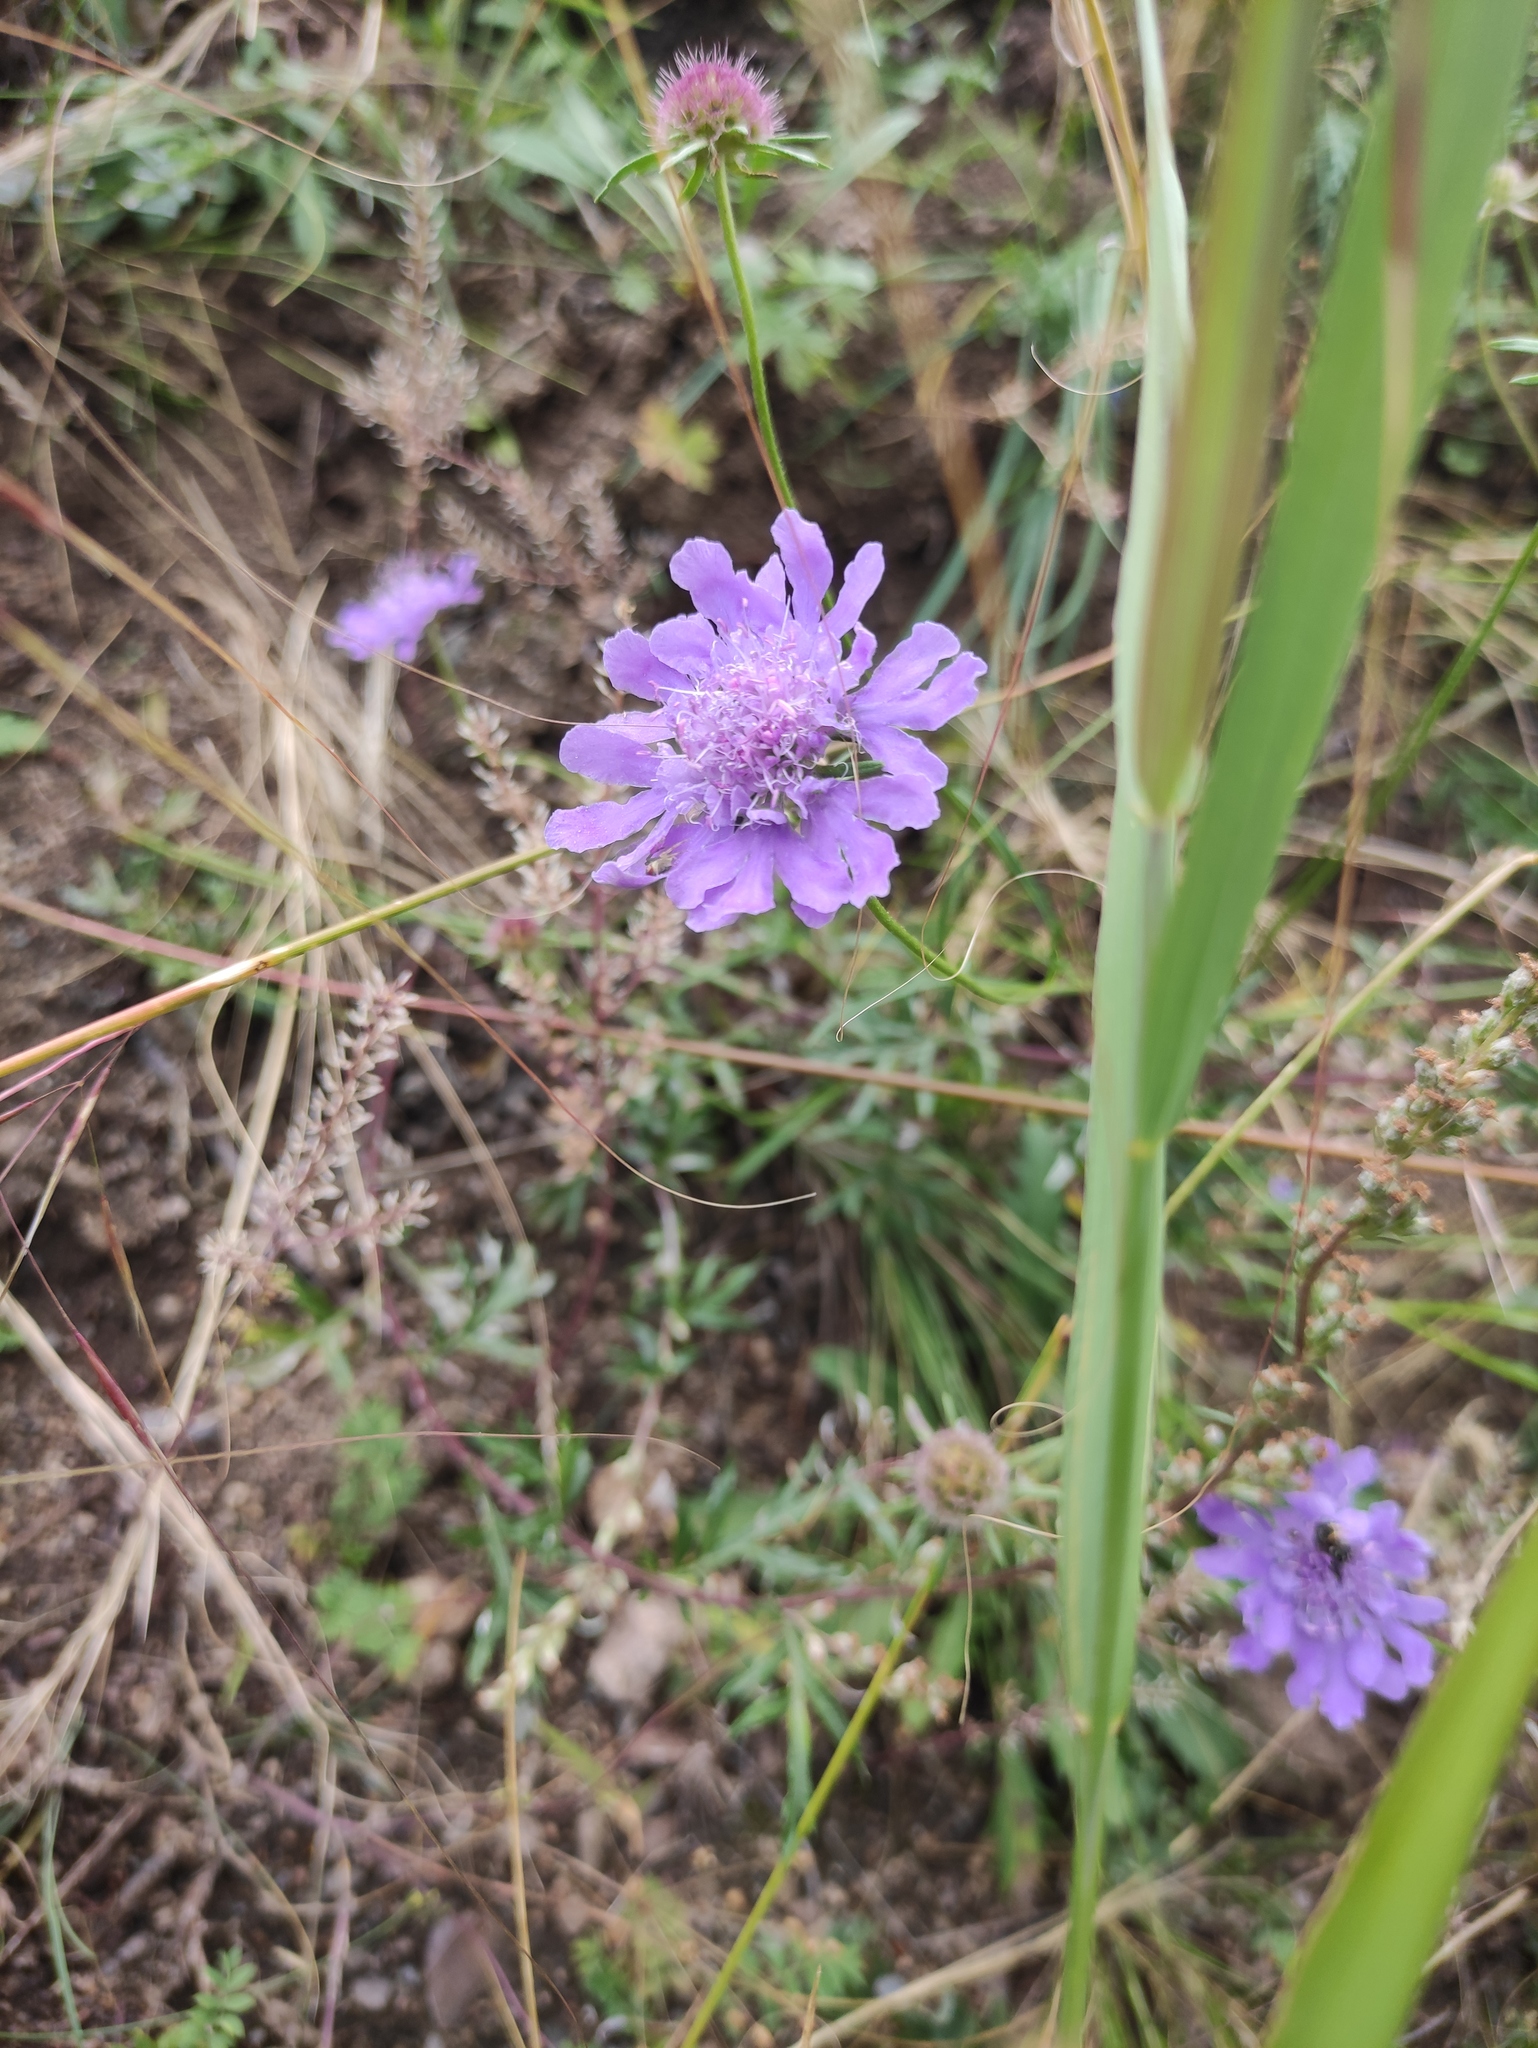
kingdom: Plantae
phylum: Tracheophyta
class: Magnoliopsida
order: Dipsacales
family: Caprifoliaceae
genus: Scabiosa
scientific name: Scabiosa comosa
